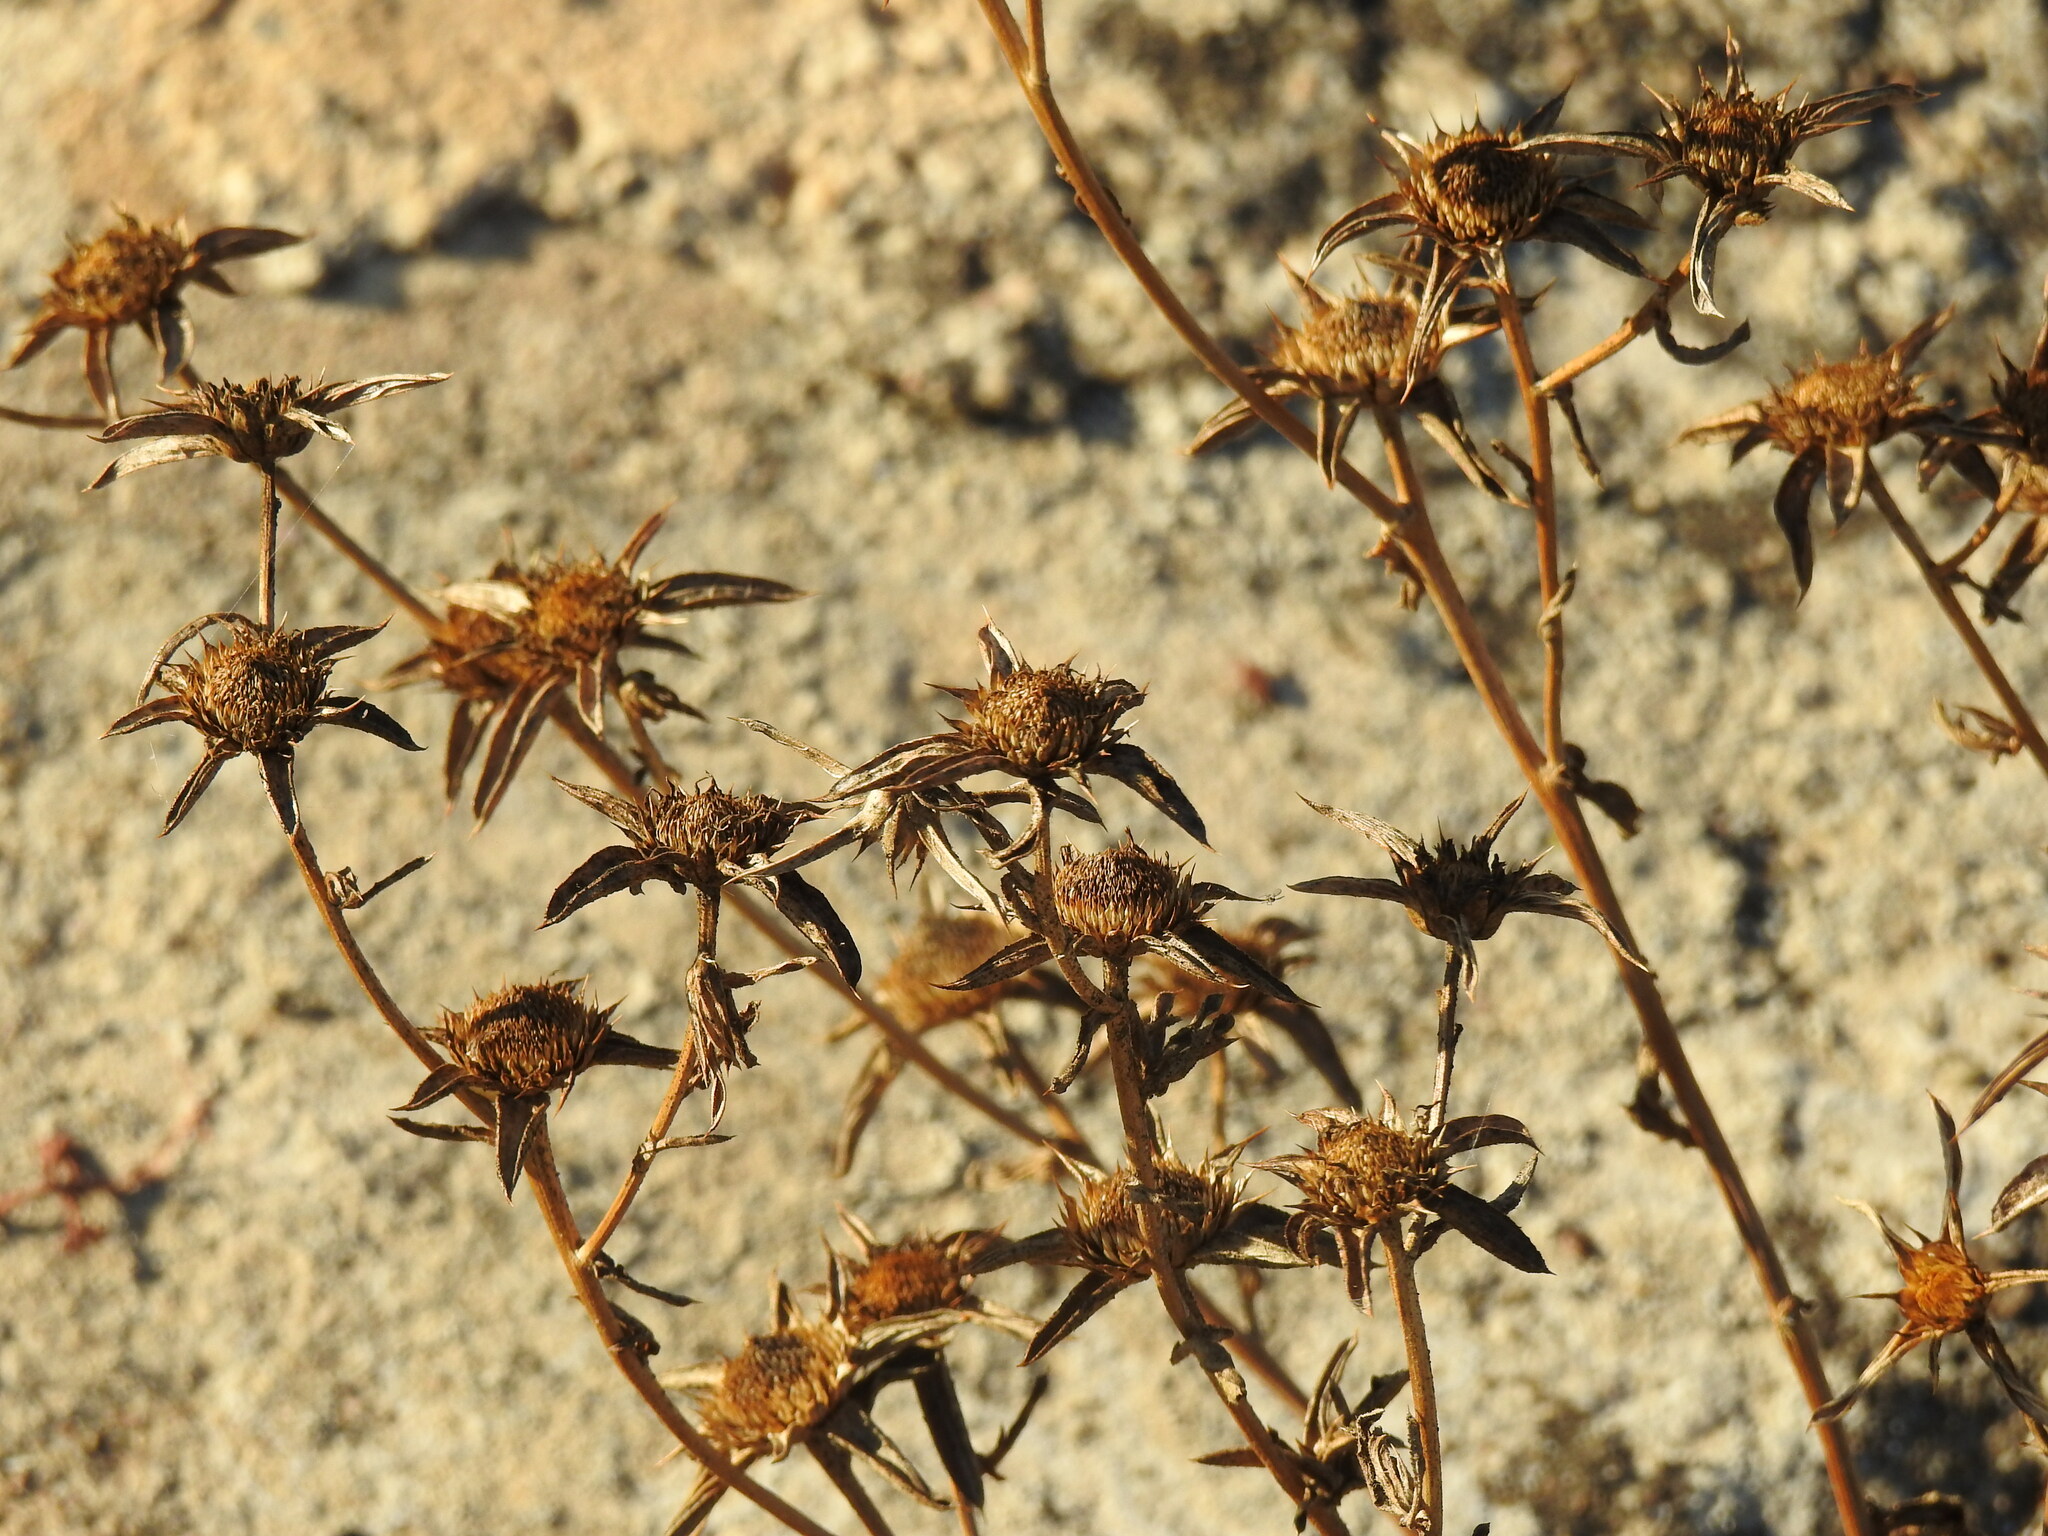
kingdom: Plantae
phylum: Tracheophyta
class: Magnoliopsida
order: Asterales
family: Asteraceae
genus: Pallenis
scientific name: Pallenis spinosa
